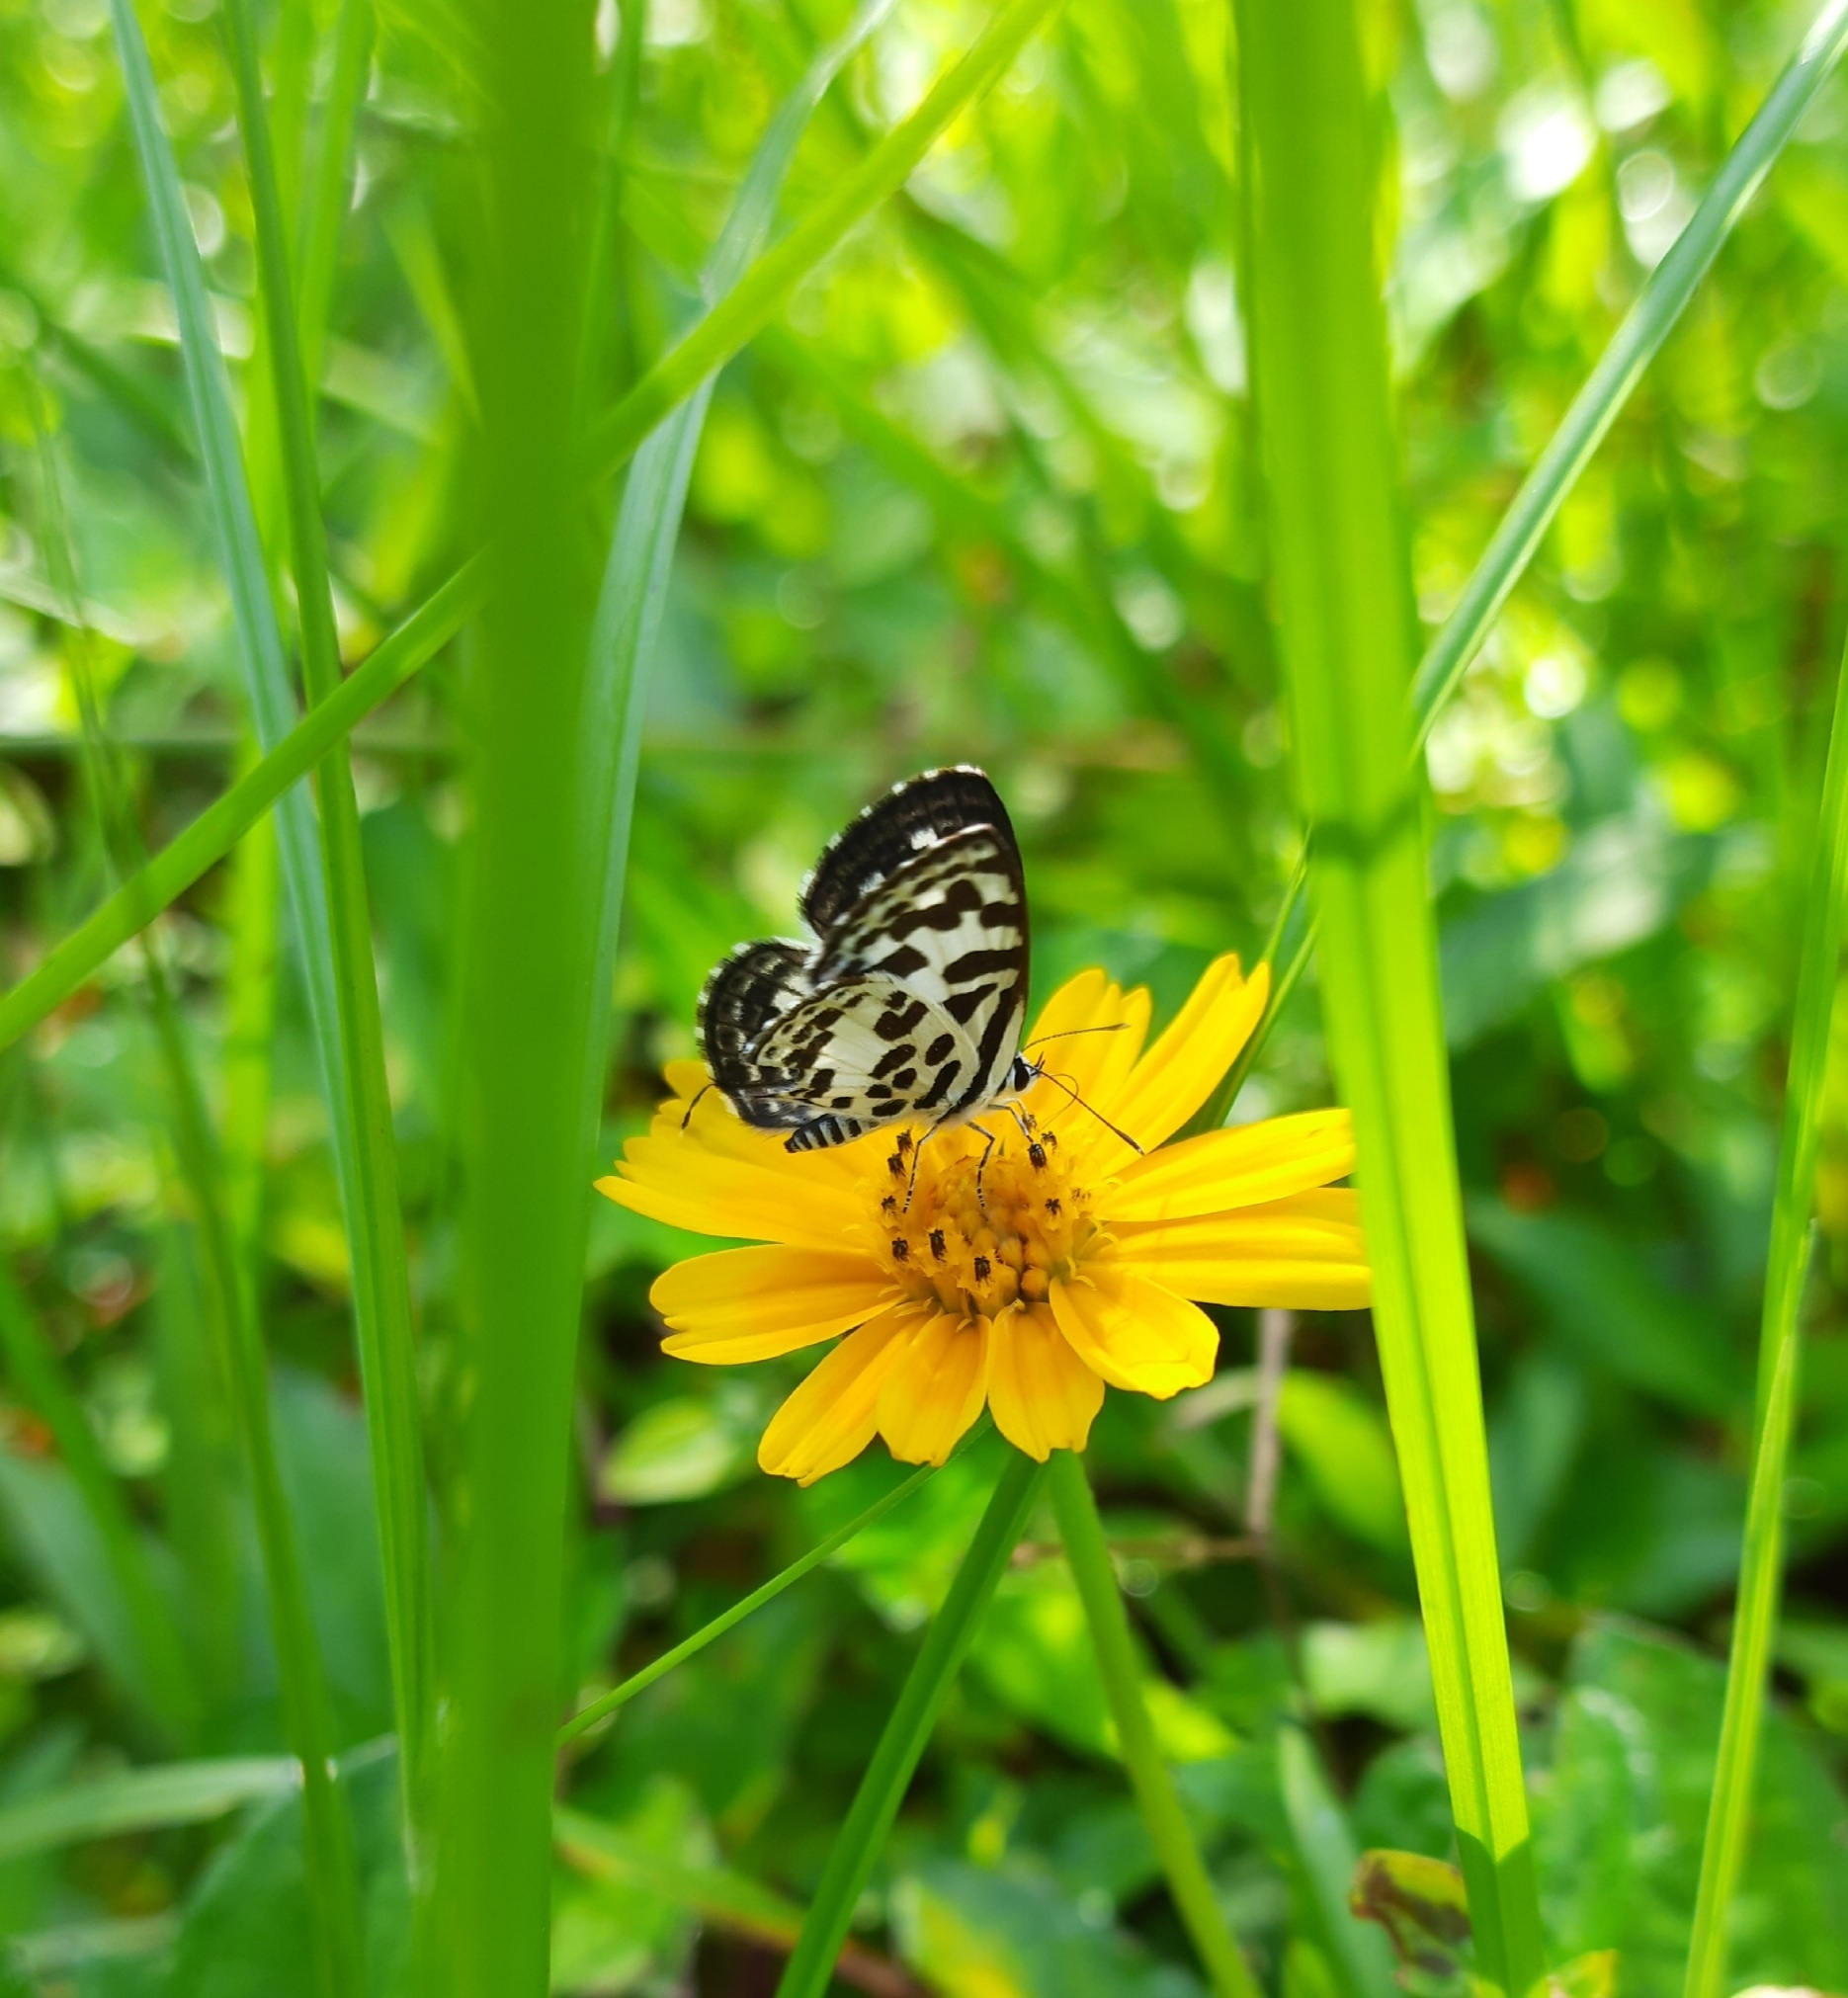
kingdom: Animalia
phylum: Arthropoda
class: Insecta
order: Lepidoptera
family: Lycaenidae
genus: Castalius
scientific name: Castalius rosimon
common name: Common pierrot
